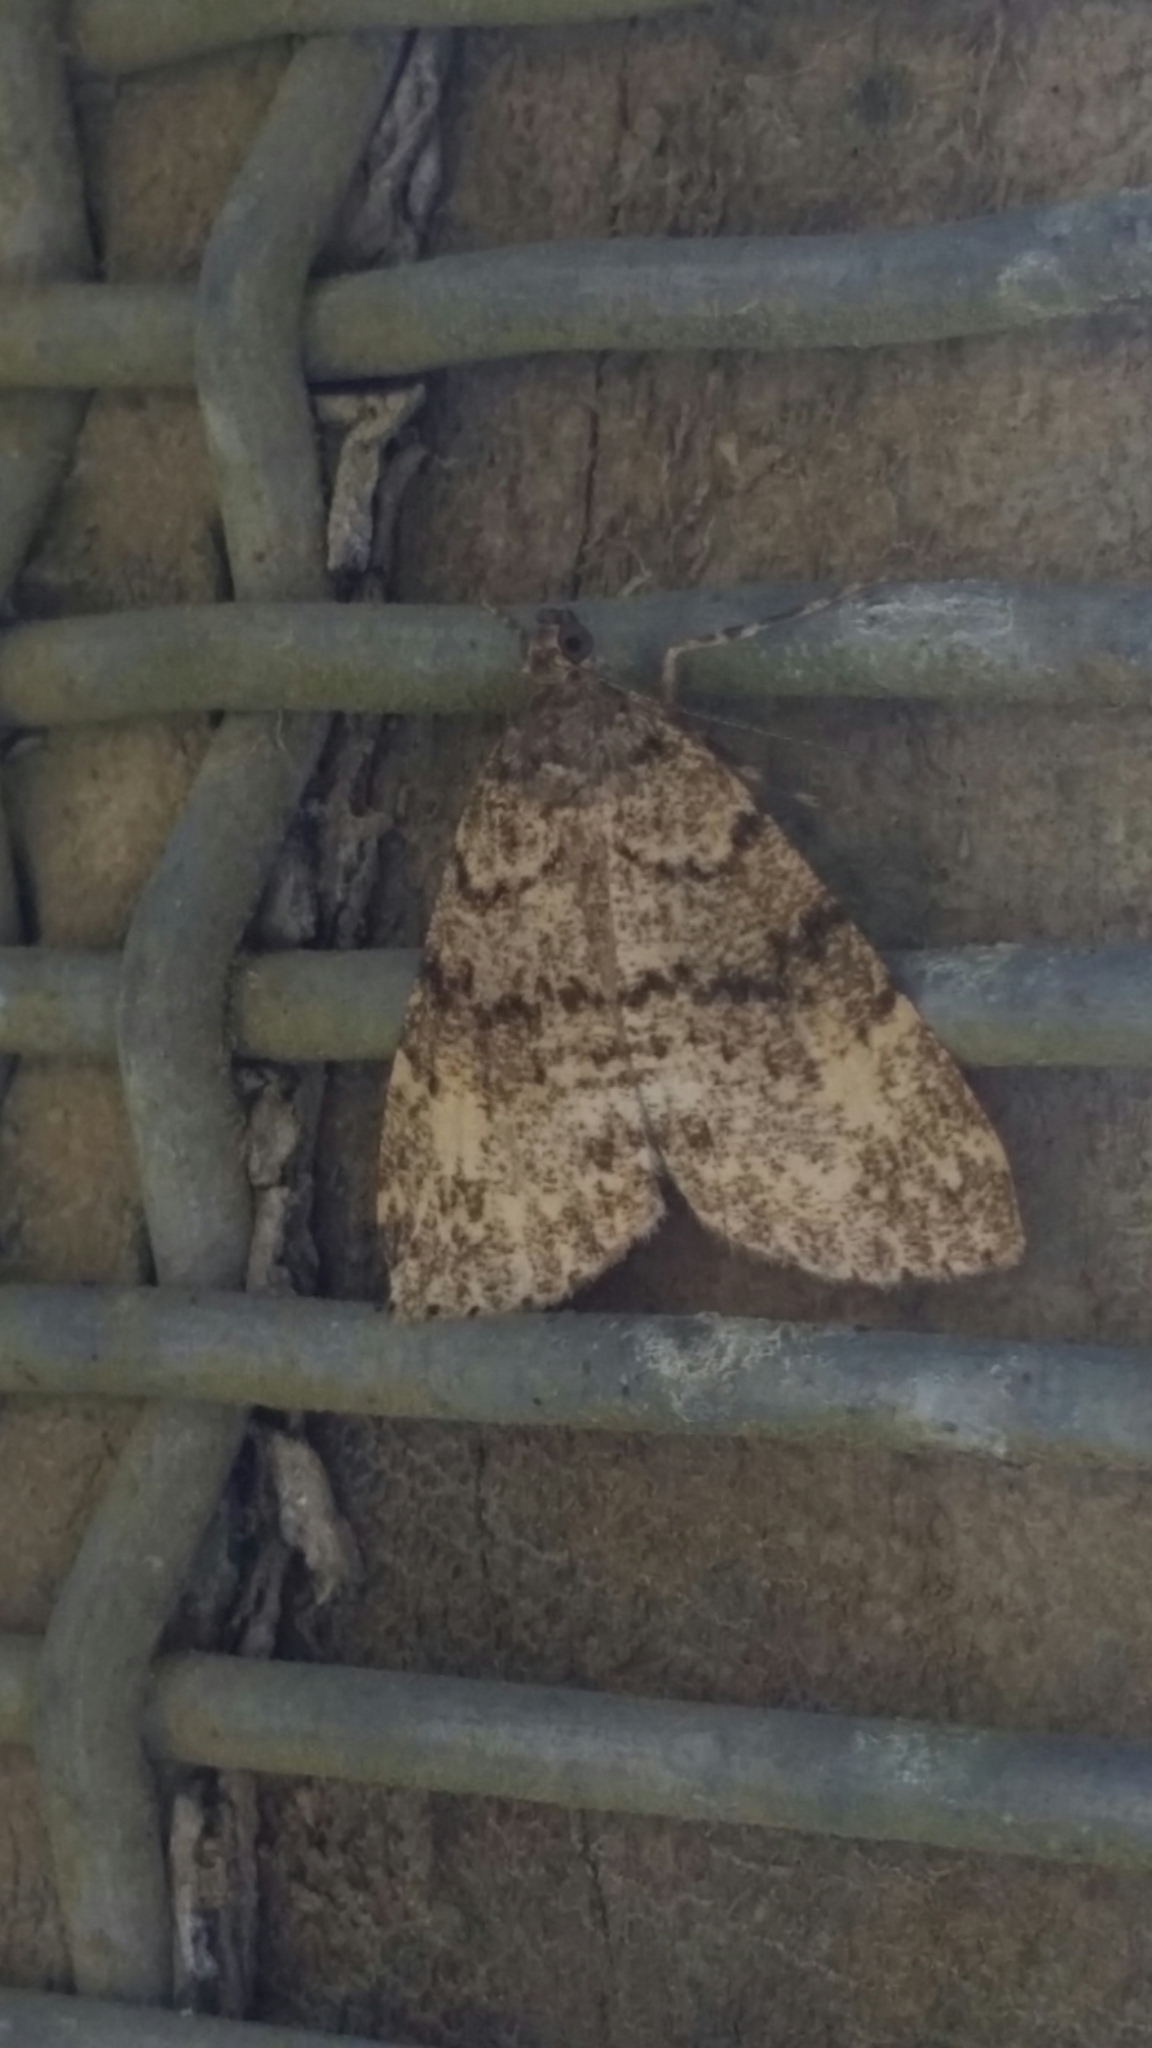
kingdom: Animalia
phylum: Arthropoda
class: Insecta
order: Lepidoptera
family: Geometridae
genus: Pseudocoremia
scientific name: Pseudocoremia indistincta
